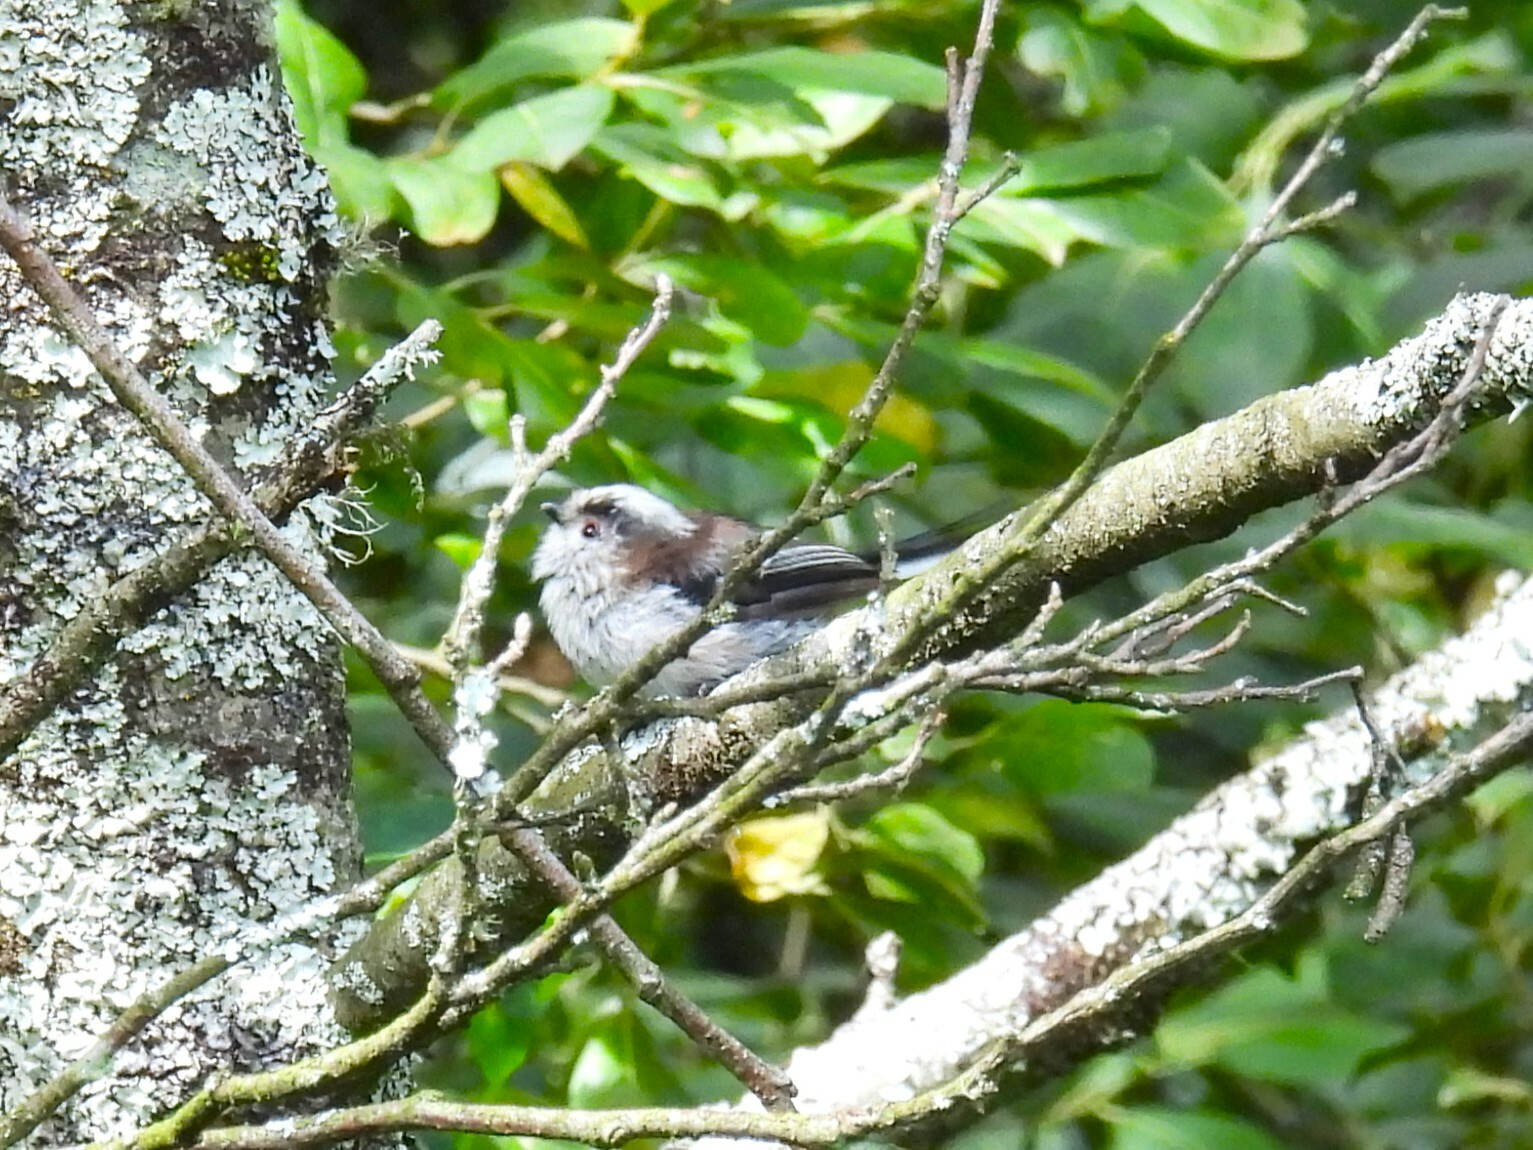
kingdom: Animalia
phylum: Chordata
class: Aves
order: Passeriformes
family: Aegithalidae
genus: Aegithalos
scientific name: Aegithalos caudatus
